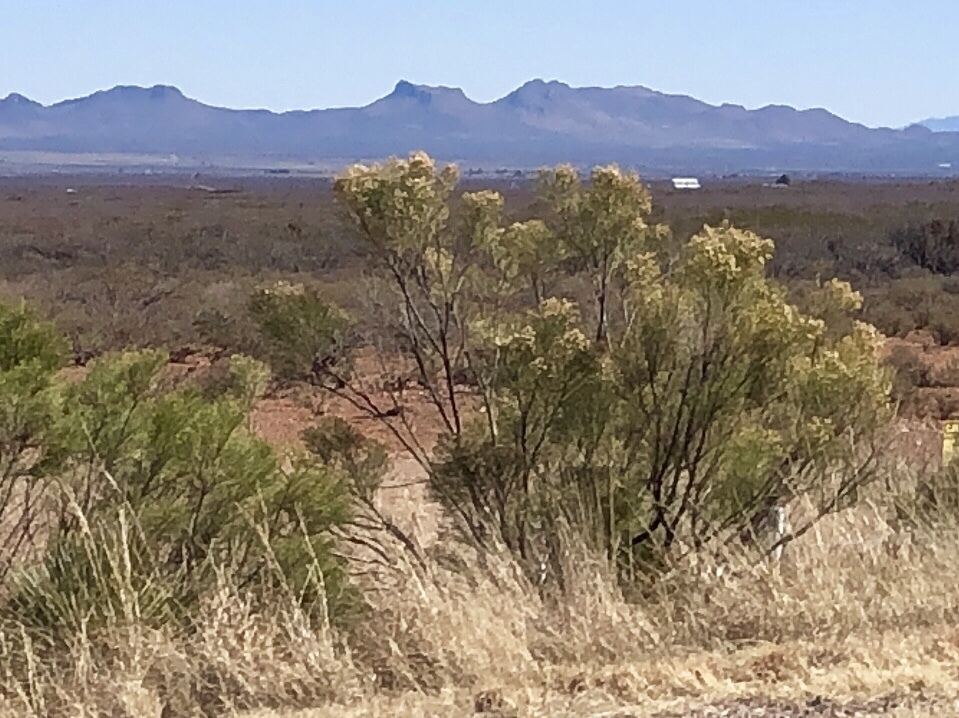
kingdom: Plantae
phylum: Tracheophyta
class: Magnoliopsida
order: Asterales
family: Asteraceae
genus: Baccharis
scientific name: Baccharis sarothroides
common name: Desert-broom
